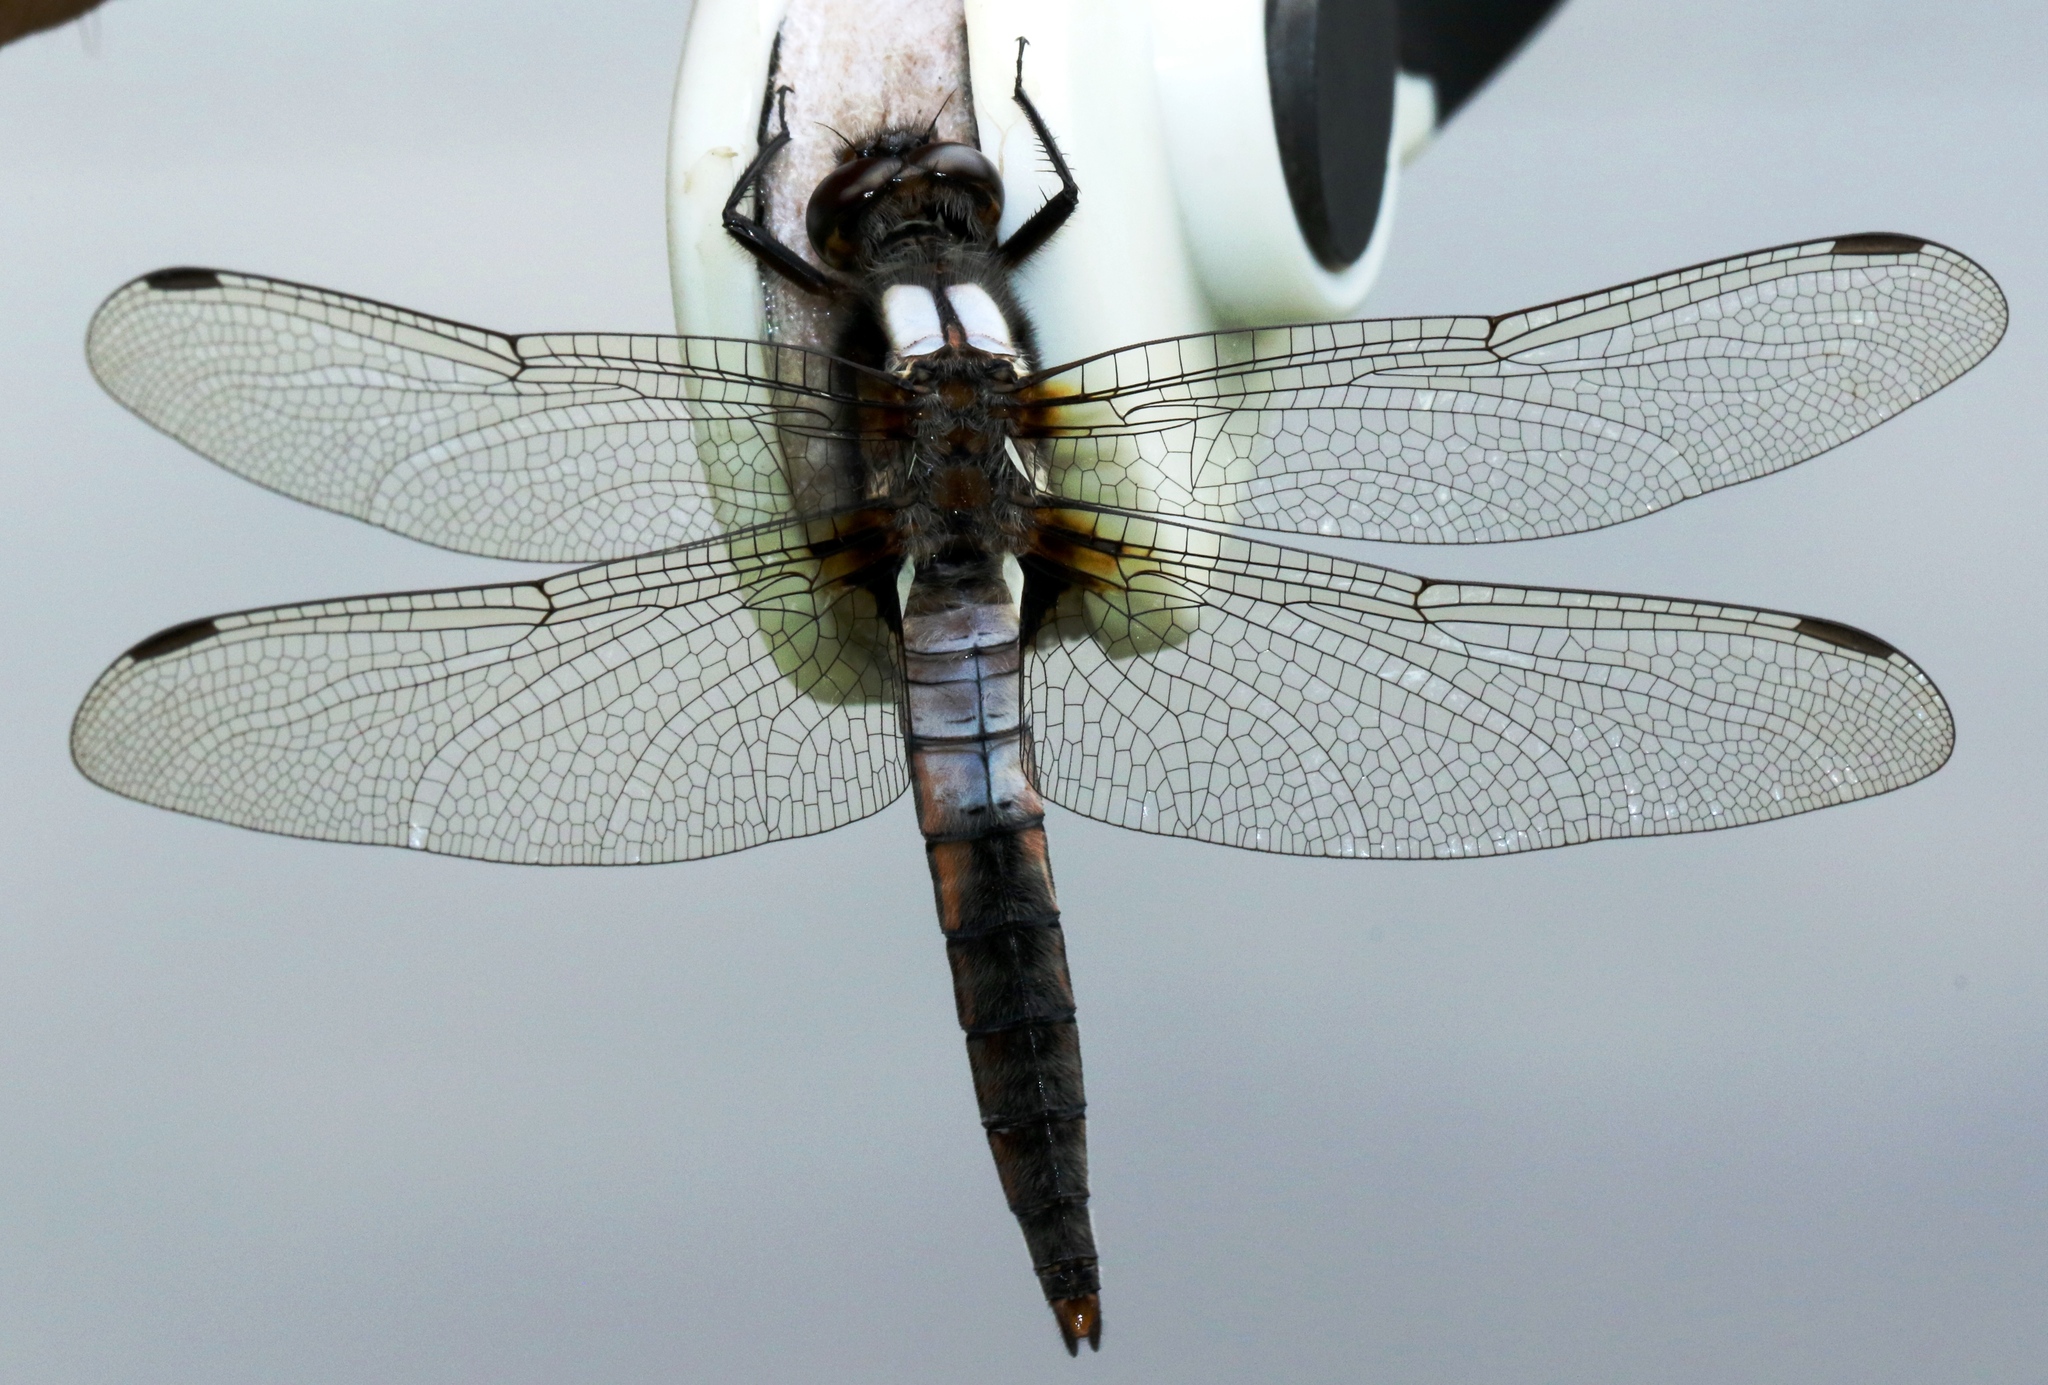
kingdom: Animalia
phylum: Arthropoda
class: Insecta
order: Odonata
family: Libellulidae
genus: Ladona
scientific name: Ladona julia
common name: Chalk-fronted corporal
